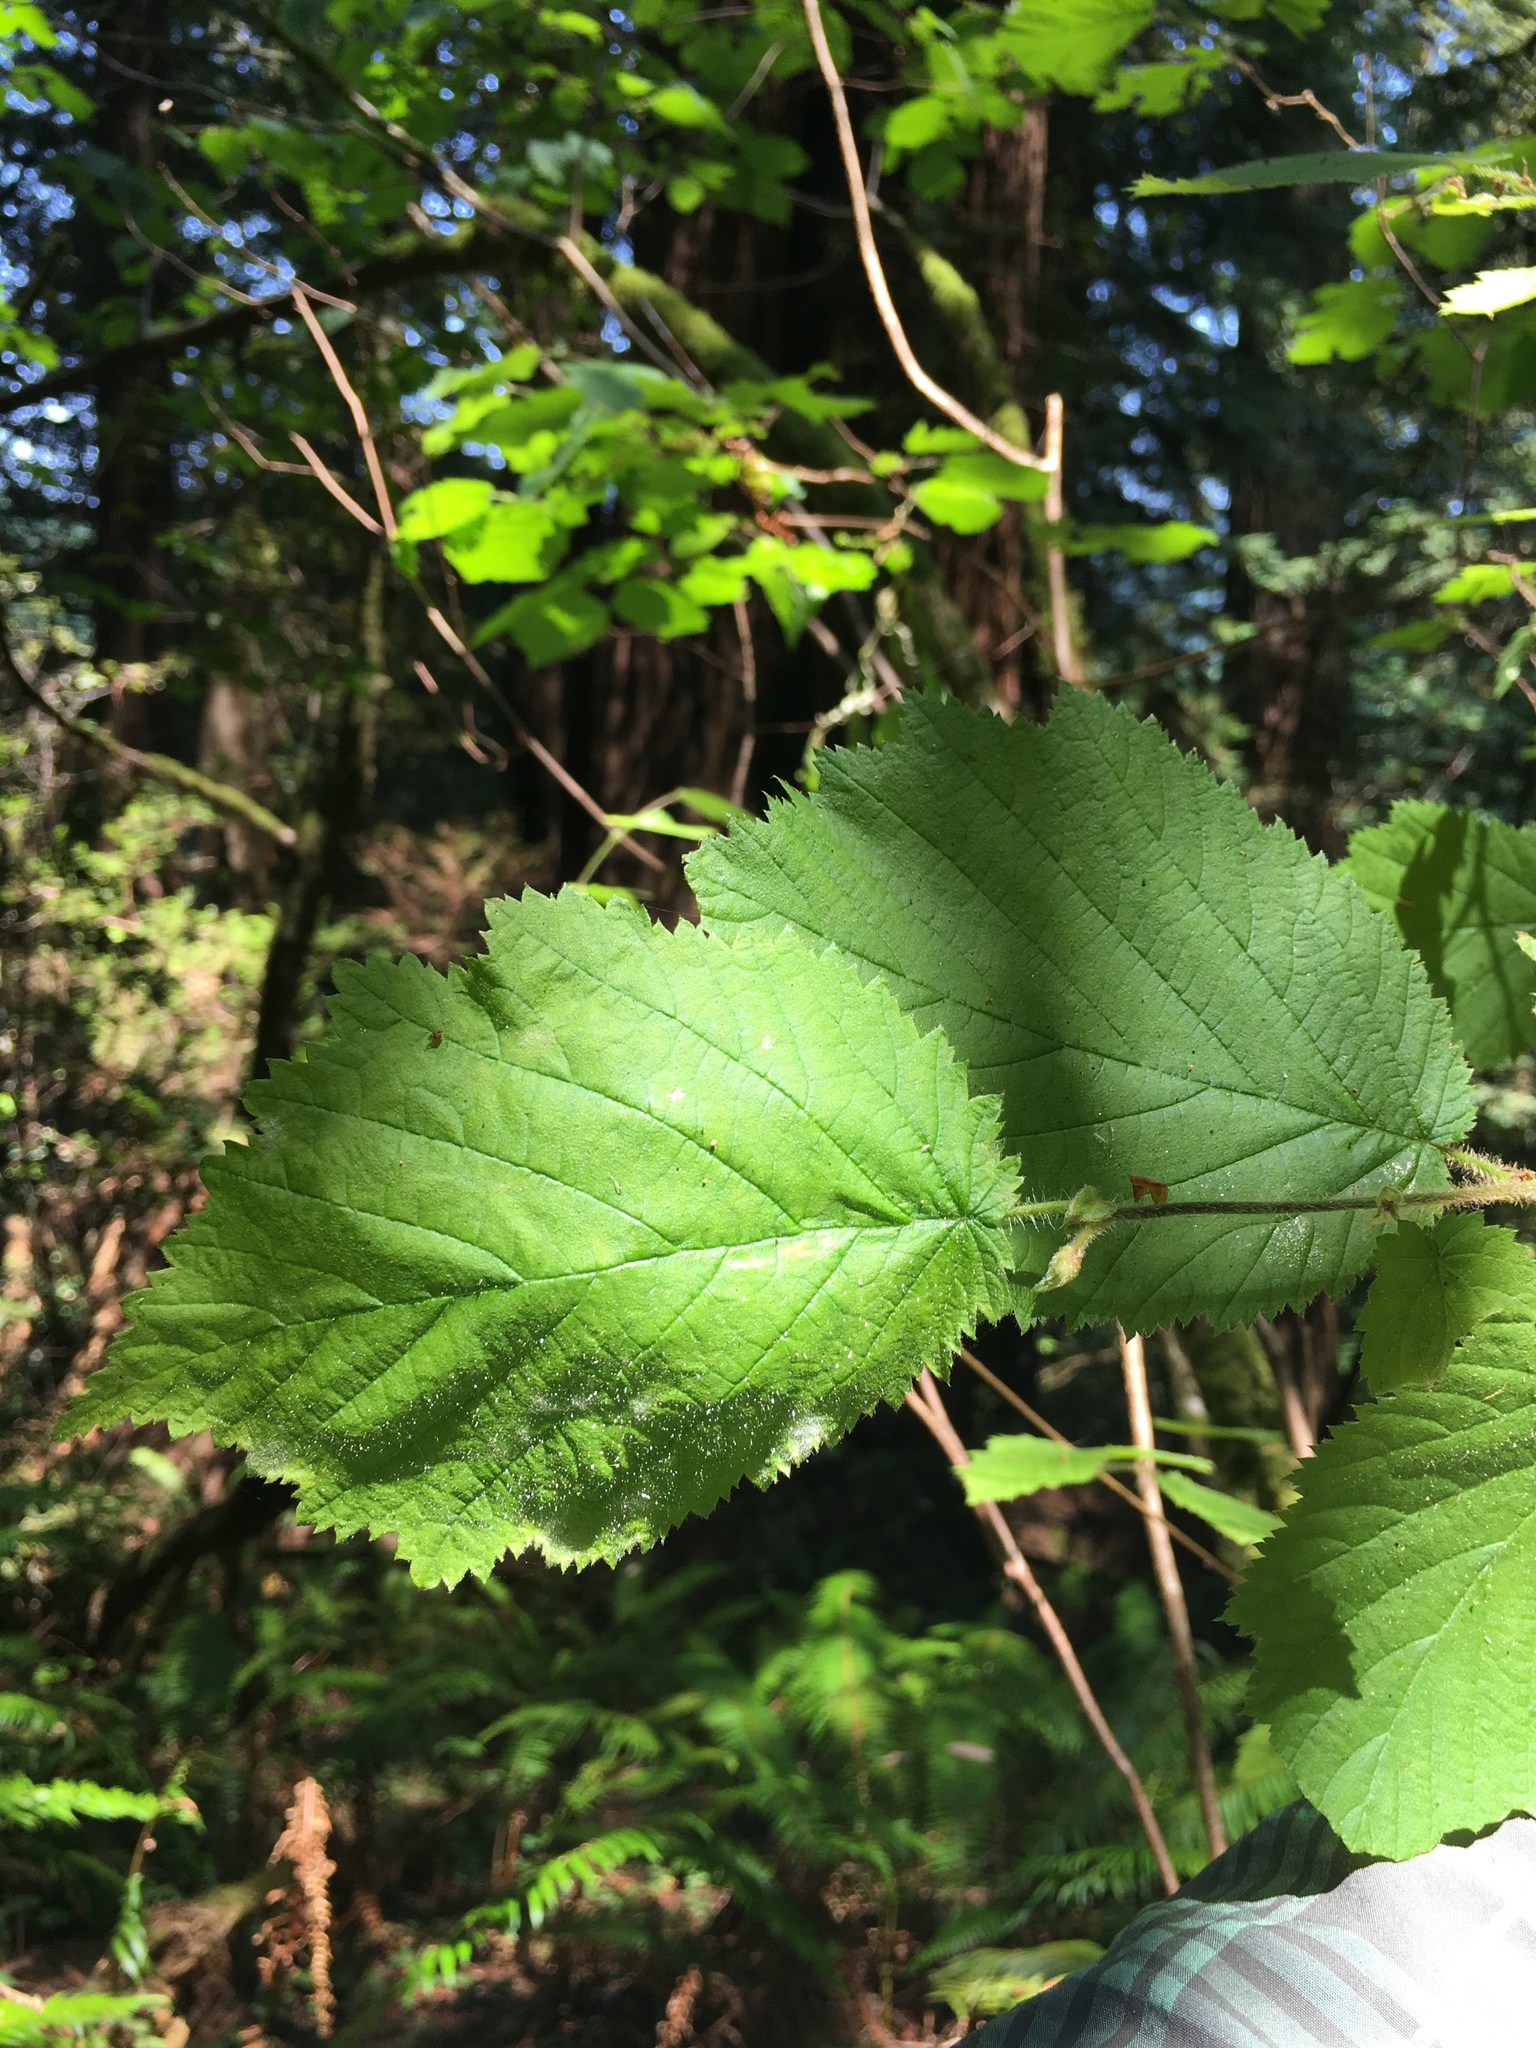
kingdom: Plantae
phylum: Tracheophyta
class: Magnoliopsida
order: Fagales
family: Betulaceae
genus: Corylus
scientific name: Corylus cornuta
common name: Beaked hazel
